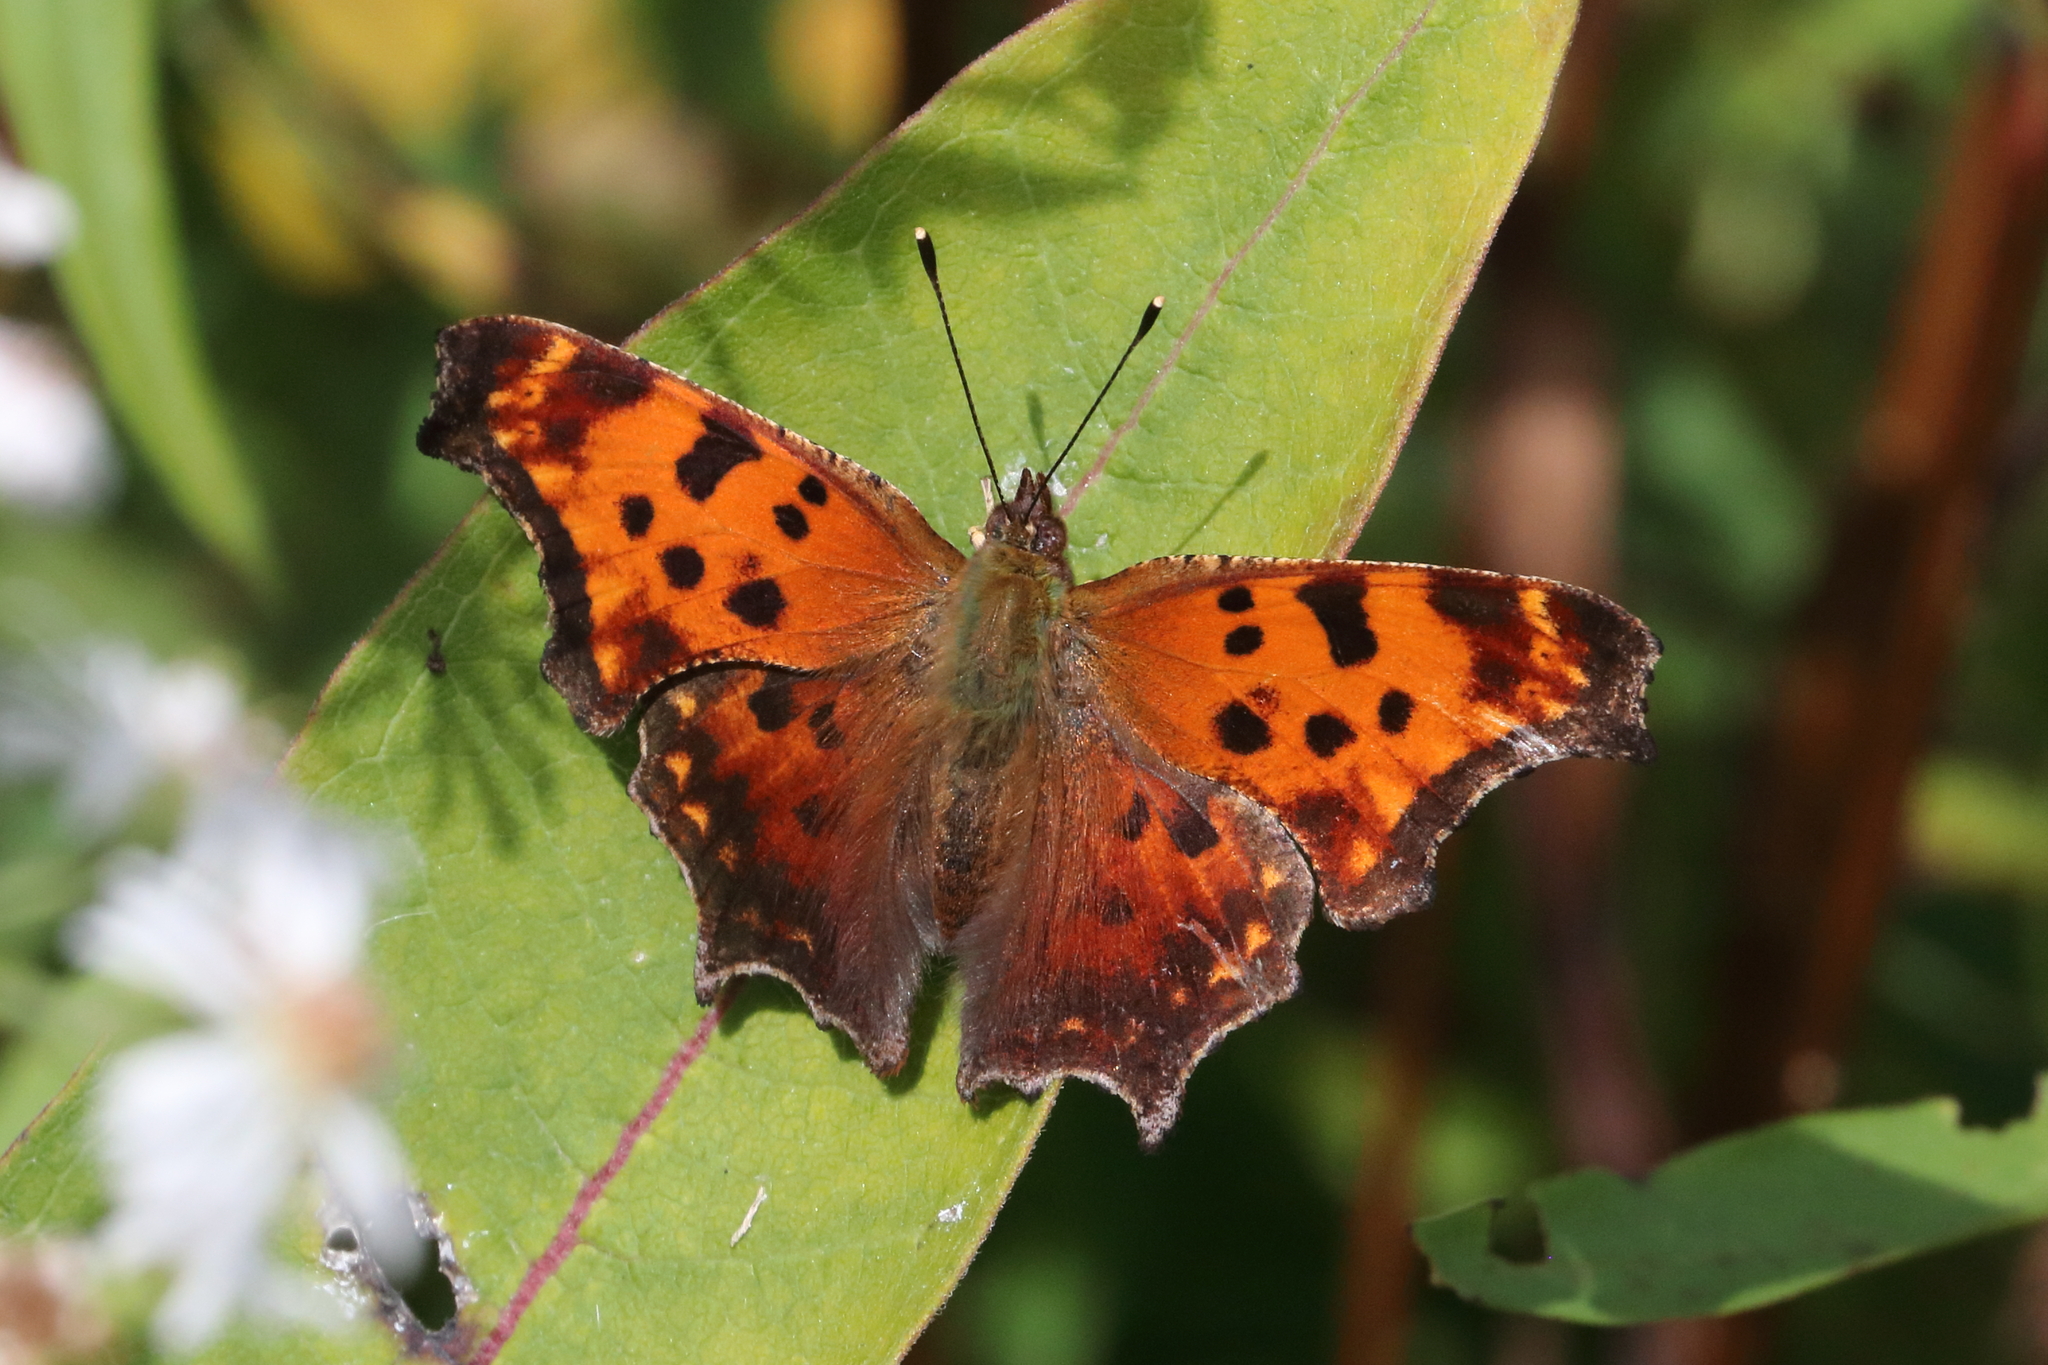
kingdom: Animalia
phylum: Arthropoda
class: Insecta
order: Lepidoptera
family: Nymphalidae
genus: Polygonia
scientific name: Polygonia comma
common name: Eastern comma
